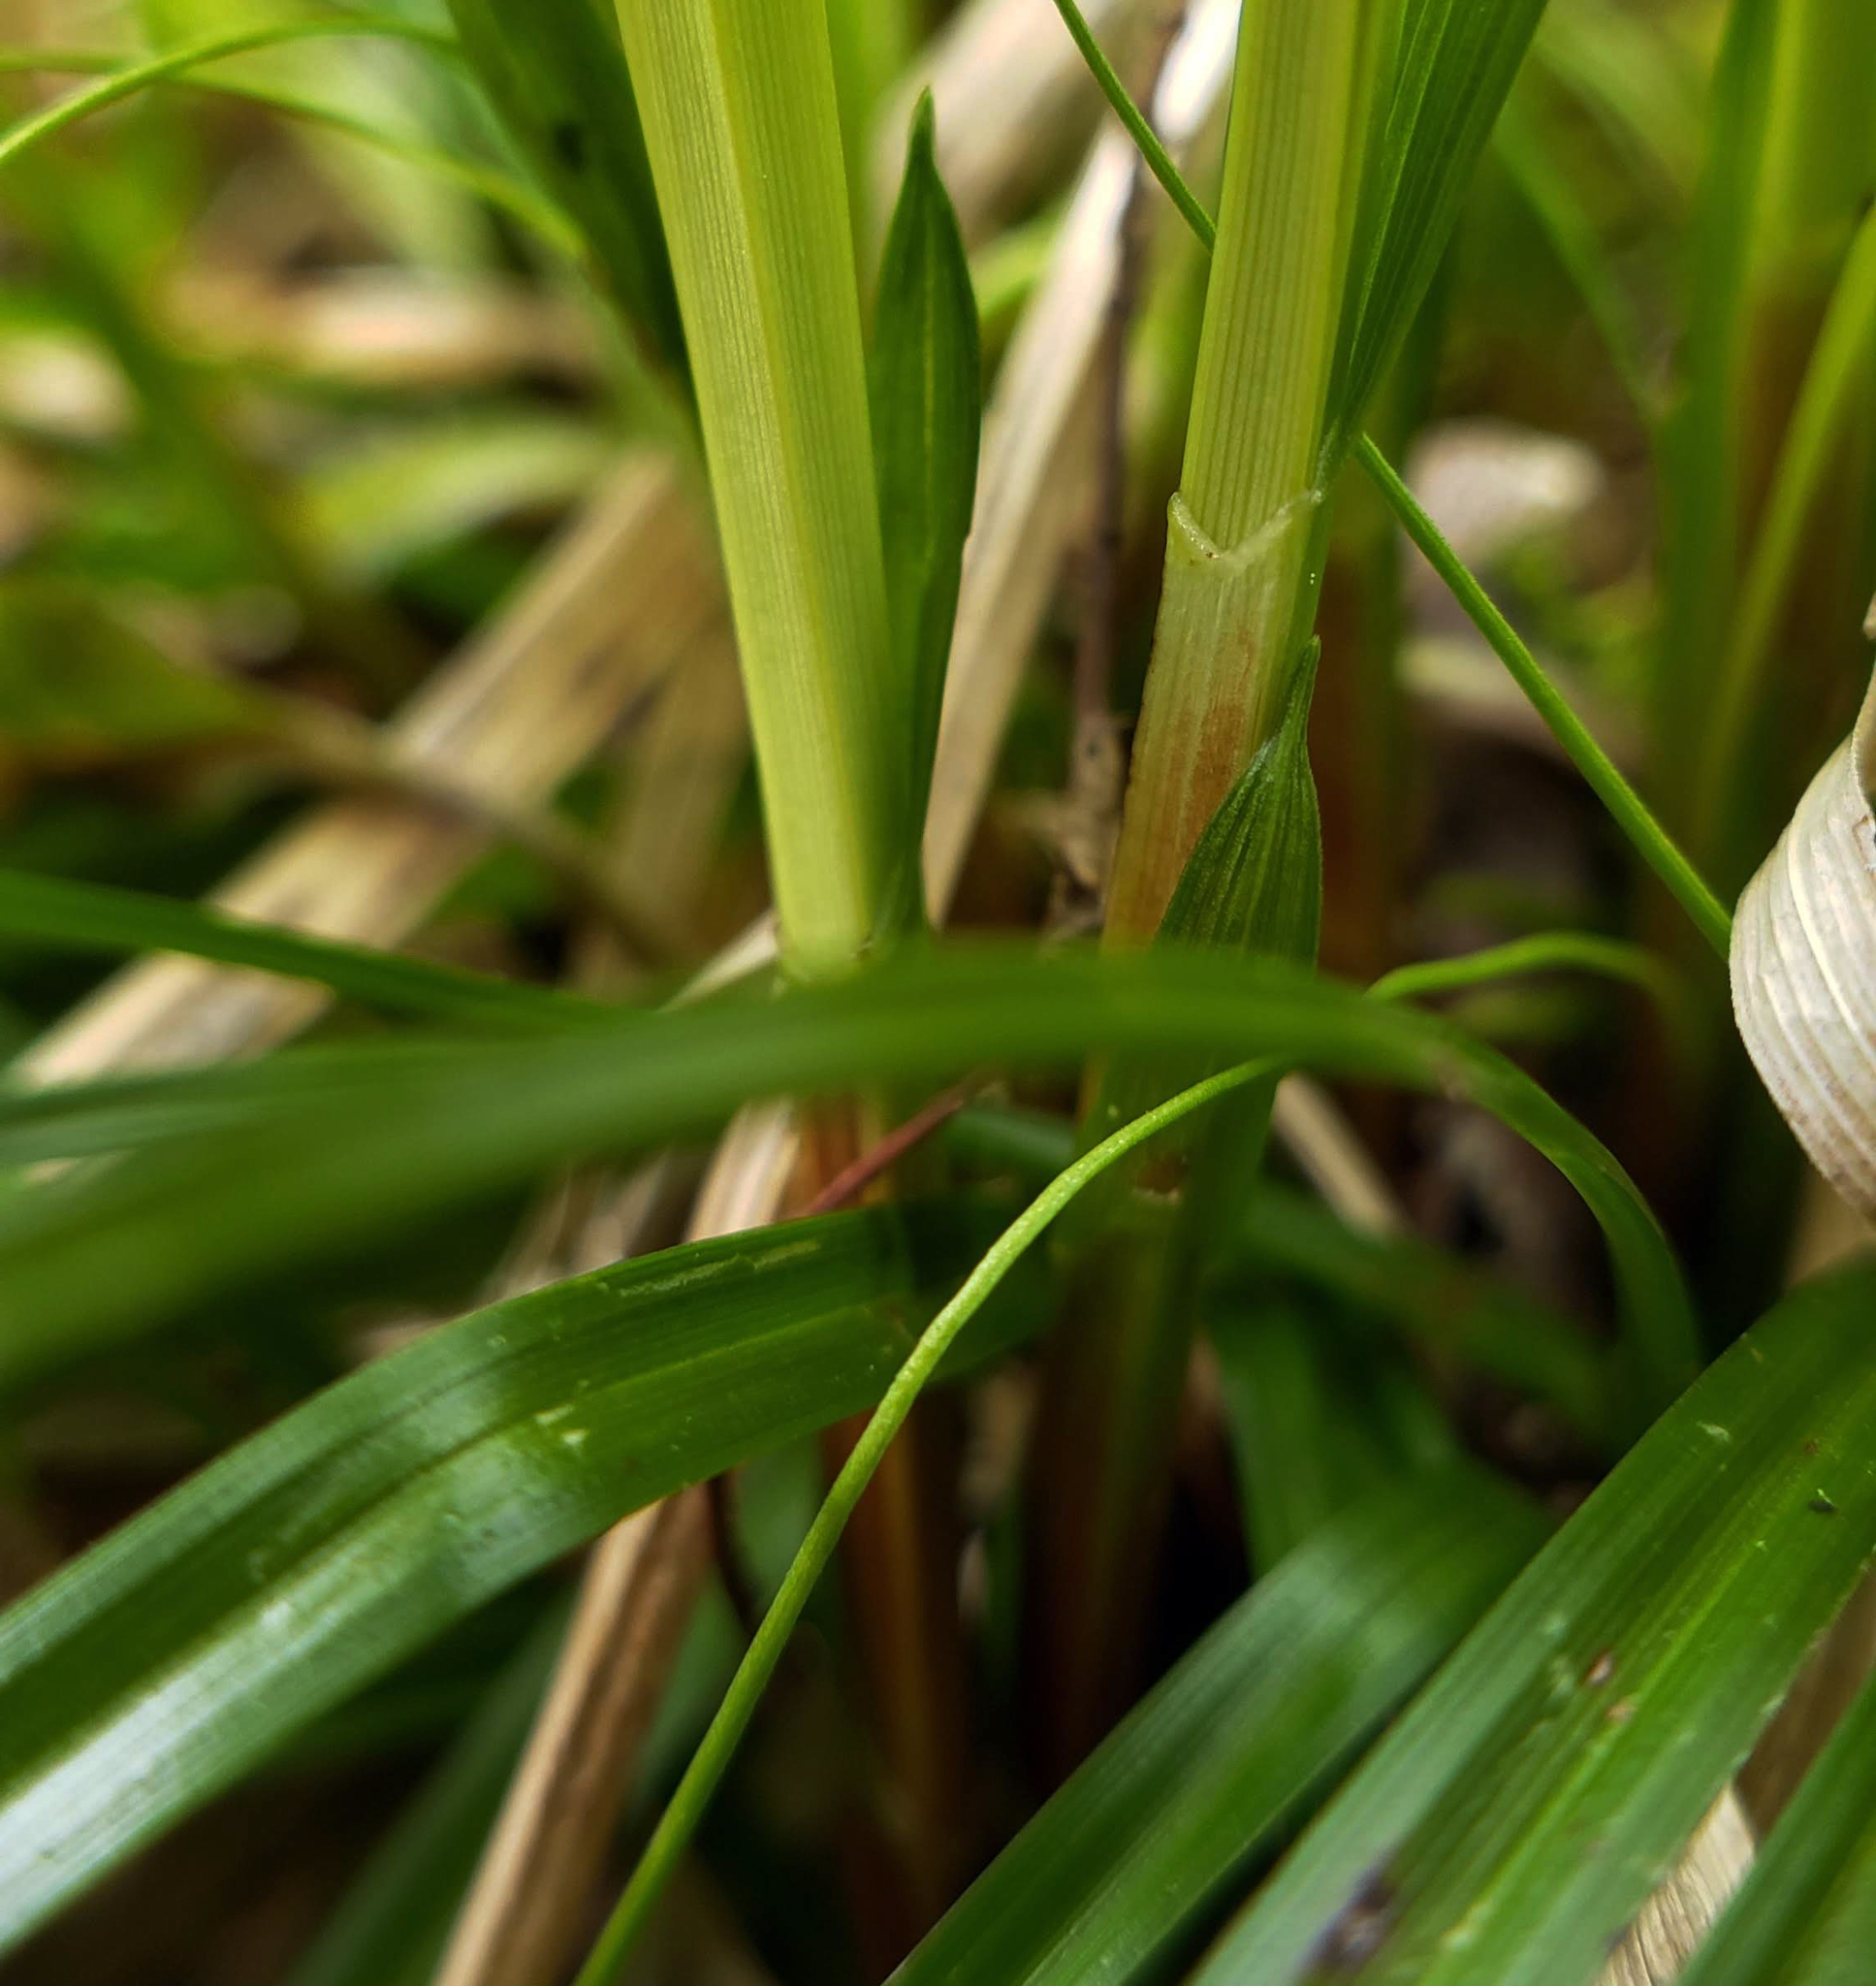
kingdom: Plantae
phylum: Tracheophyta
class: Liliopsida
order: Poales
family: Cyperaceae
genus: Carex
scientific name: Carex pedunculata
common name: Pedunculate sedge
